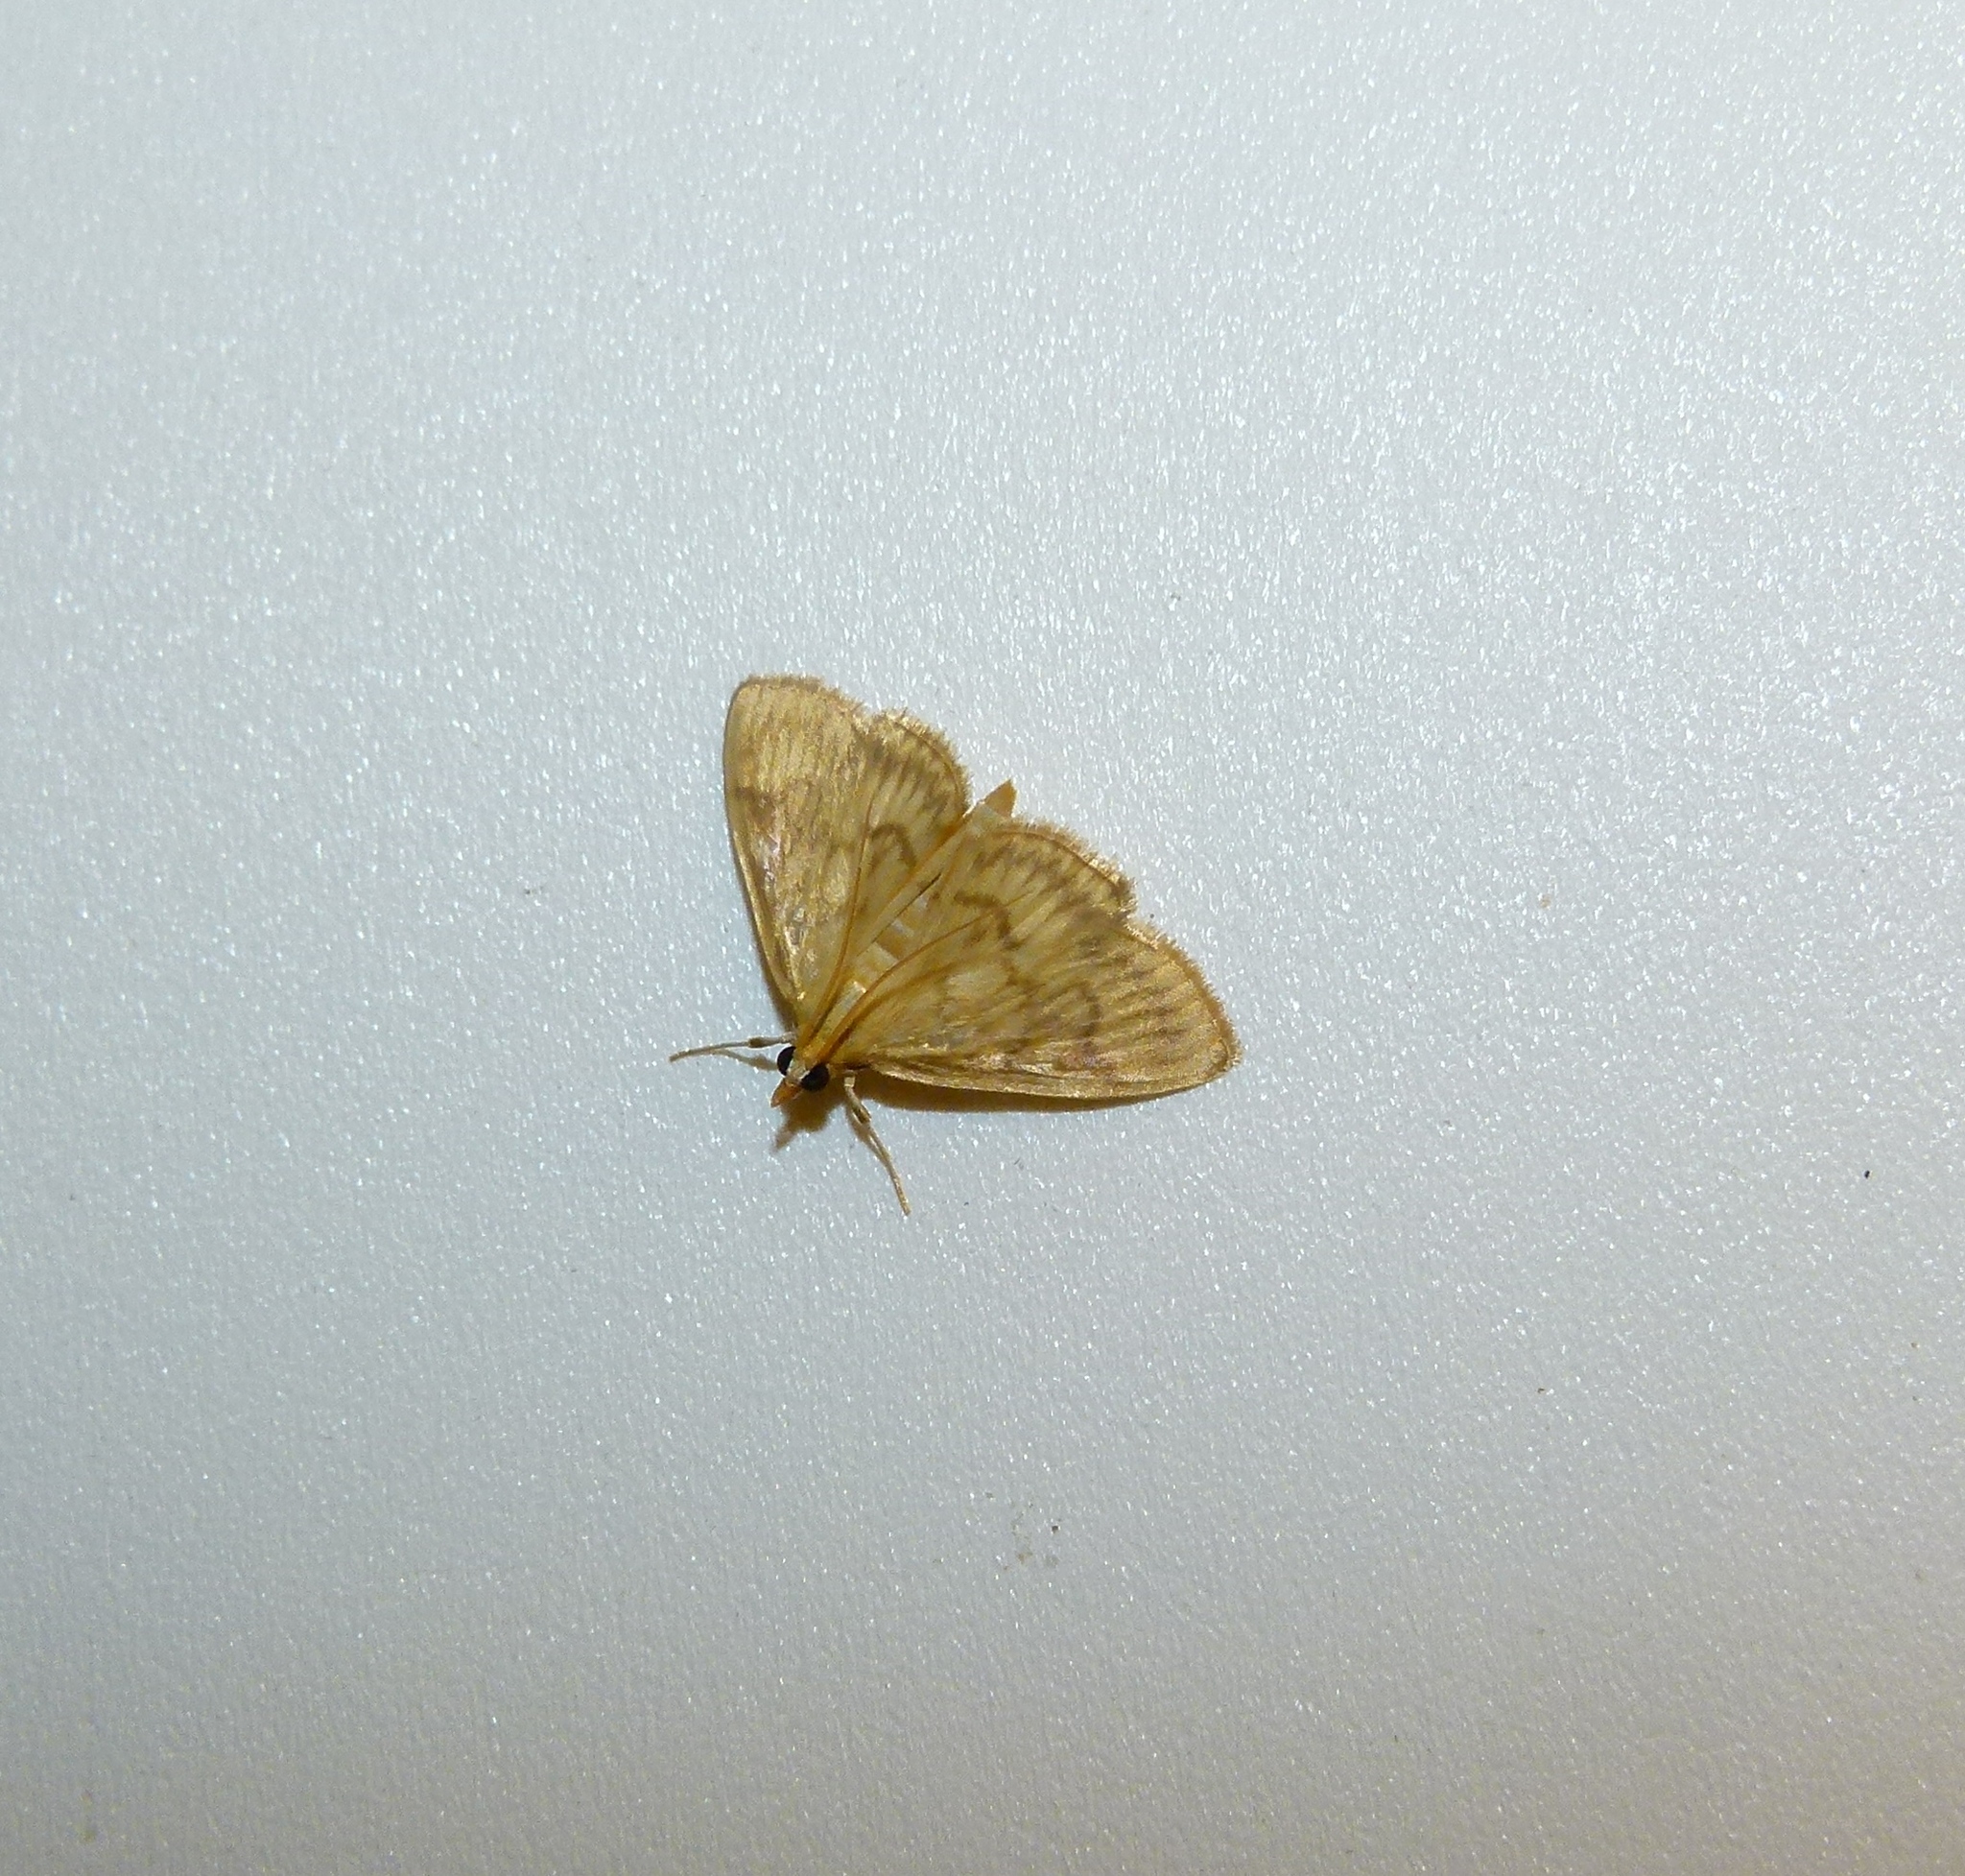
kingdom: Animalia
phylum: Arthropoda
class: Insecta
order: Lepidoptera
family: Crambidae
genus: Crocidophora
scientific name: Crocidophora serratissimalis
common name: Saw-toothed crocidophora moth
